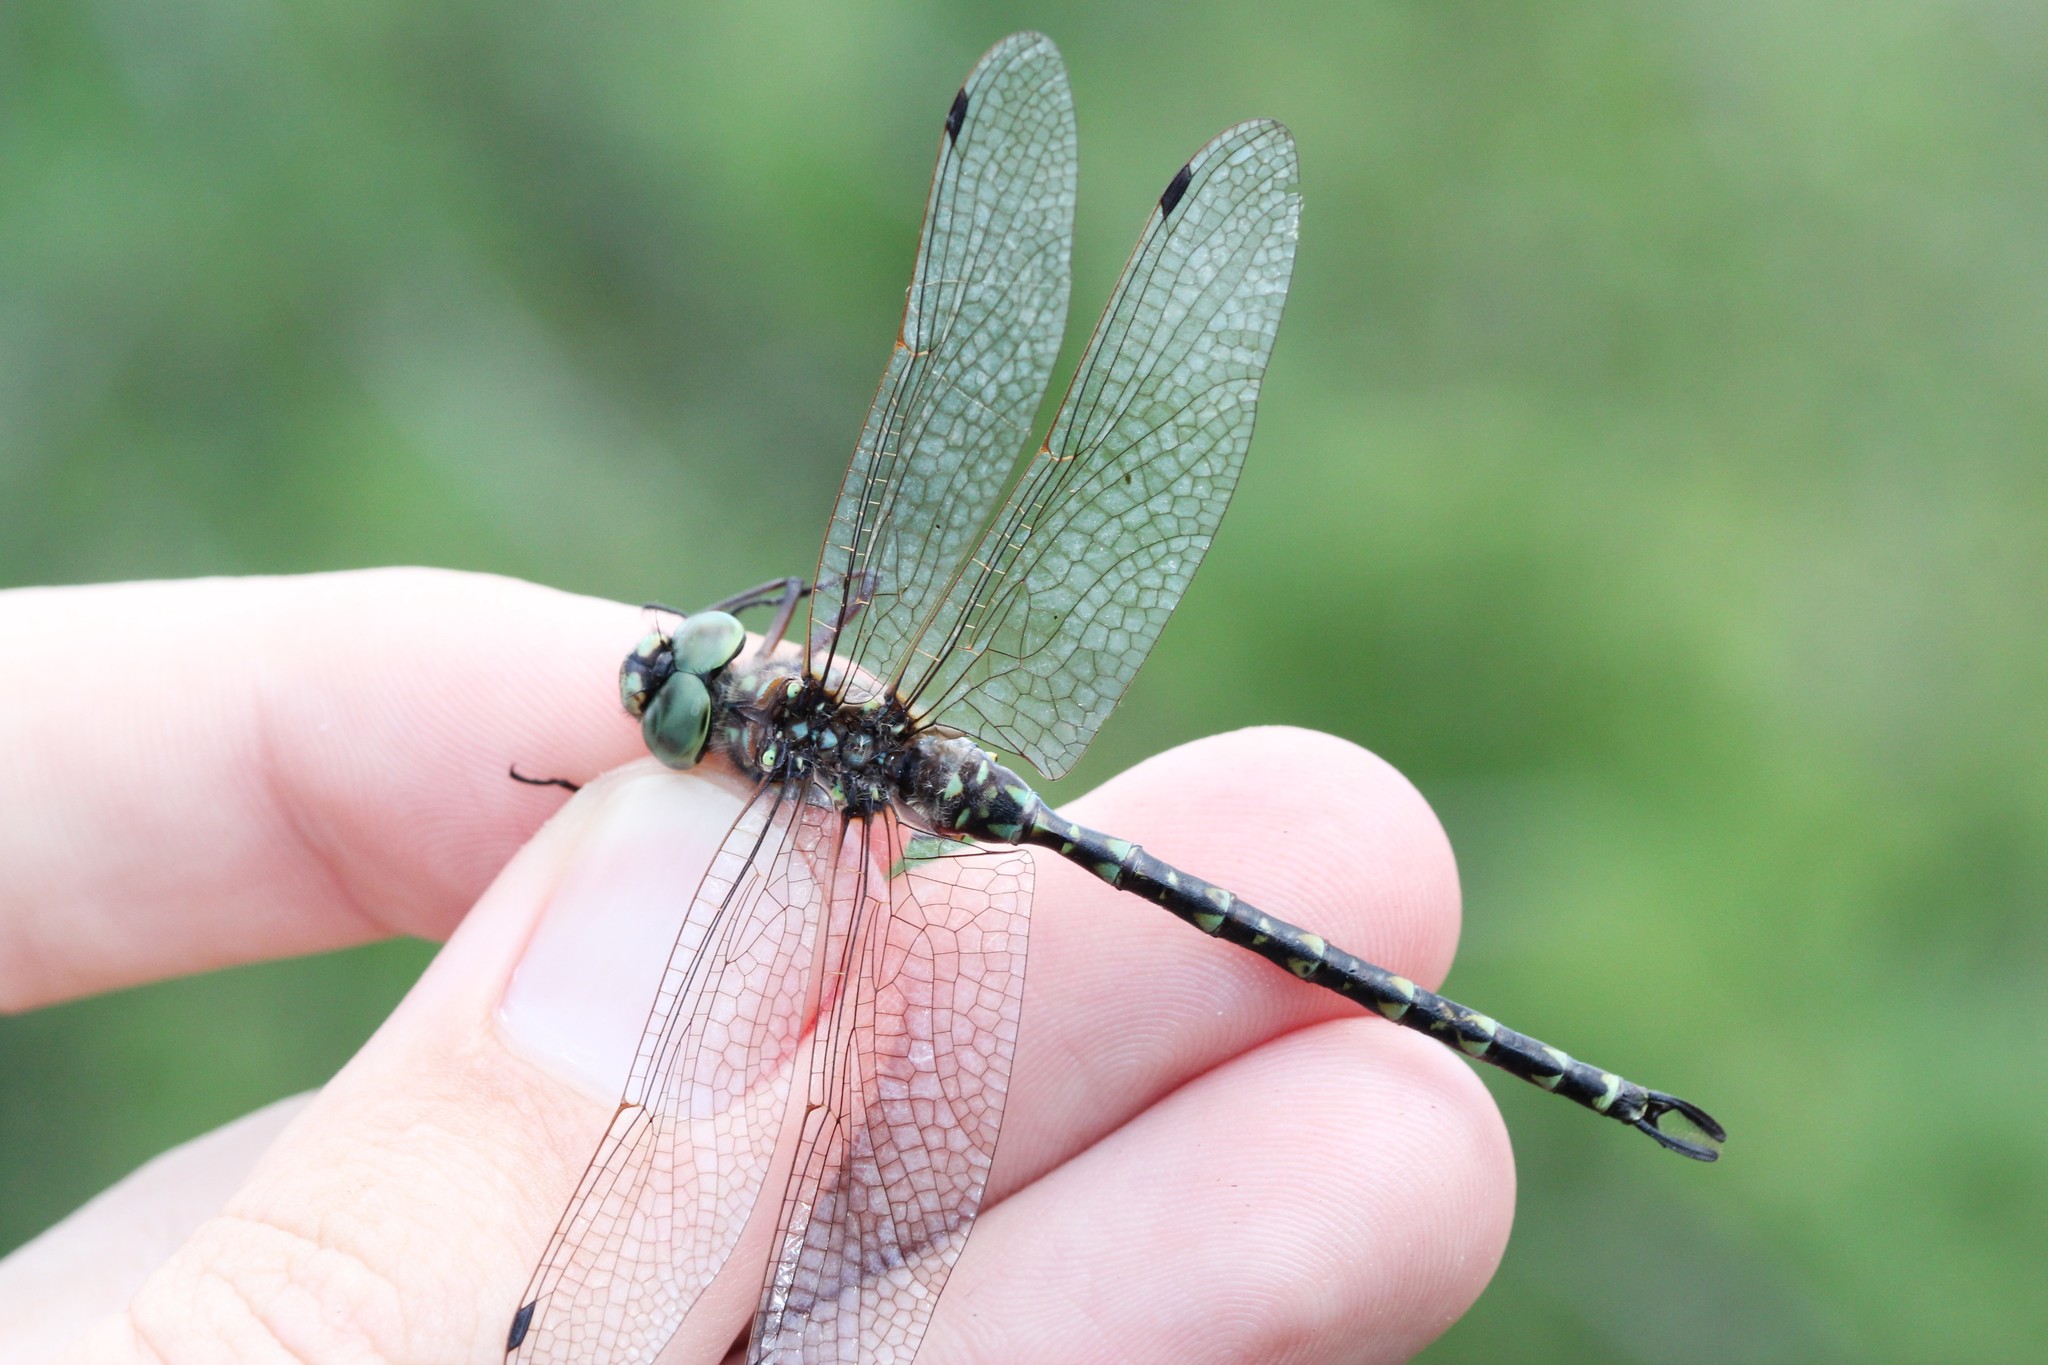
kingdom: Animalia
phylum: Arthropoda
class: Insecta
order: Odonata
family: Aeshnidae
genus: Gomphaeschna
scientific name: Gomphaeschna furcillata
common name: Harlequin darner
